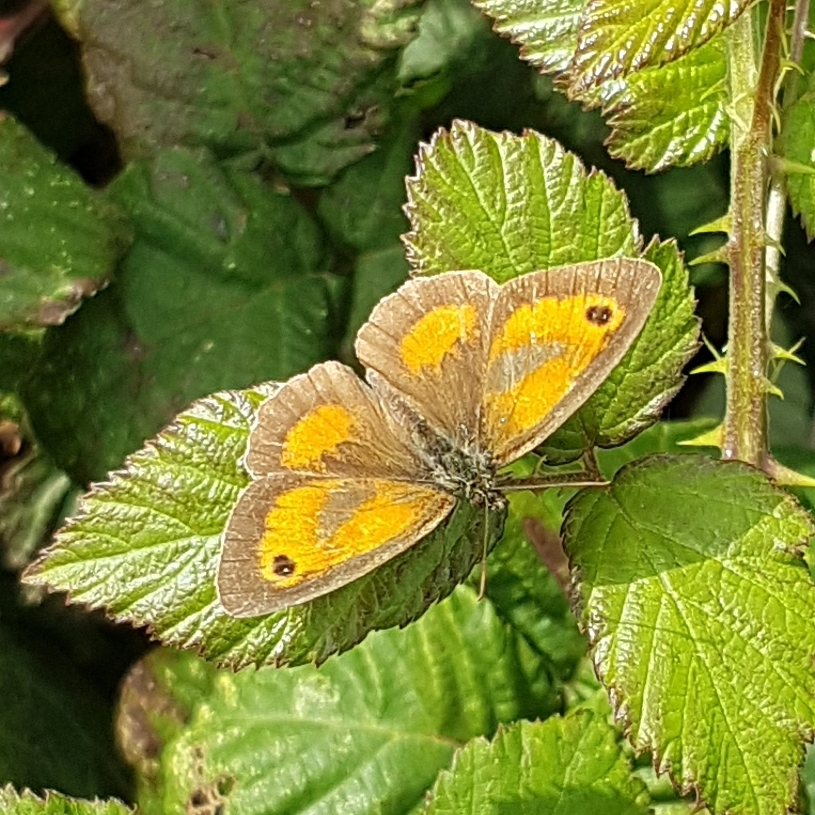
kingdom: Animalia
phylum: Arthropoda
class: Insecta
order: Lepidoptera
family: Nymphalidae
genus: Pyronia
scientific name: Pyronia tithonus
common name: Gatekeeper
